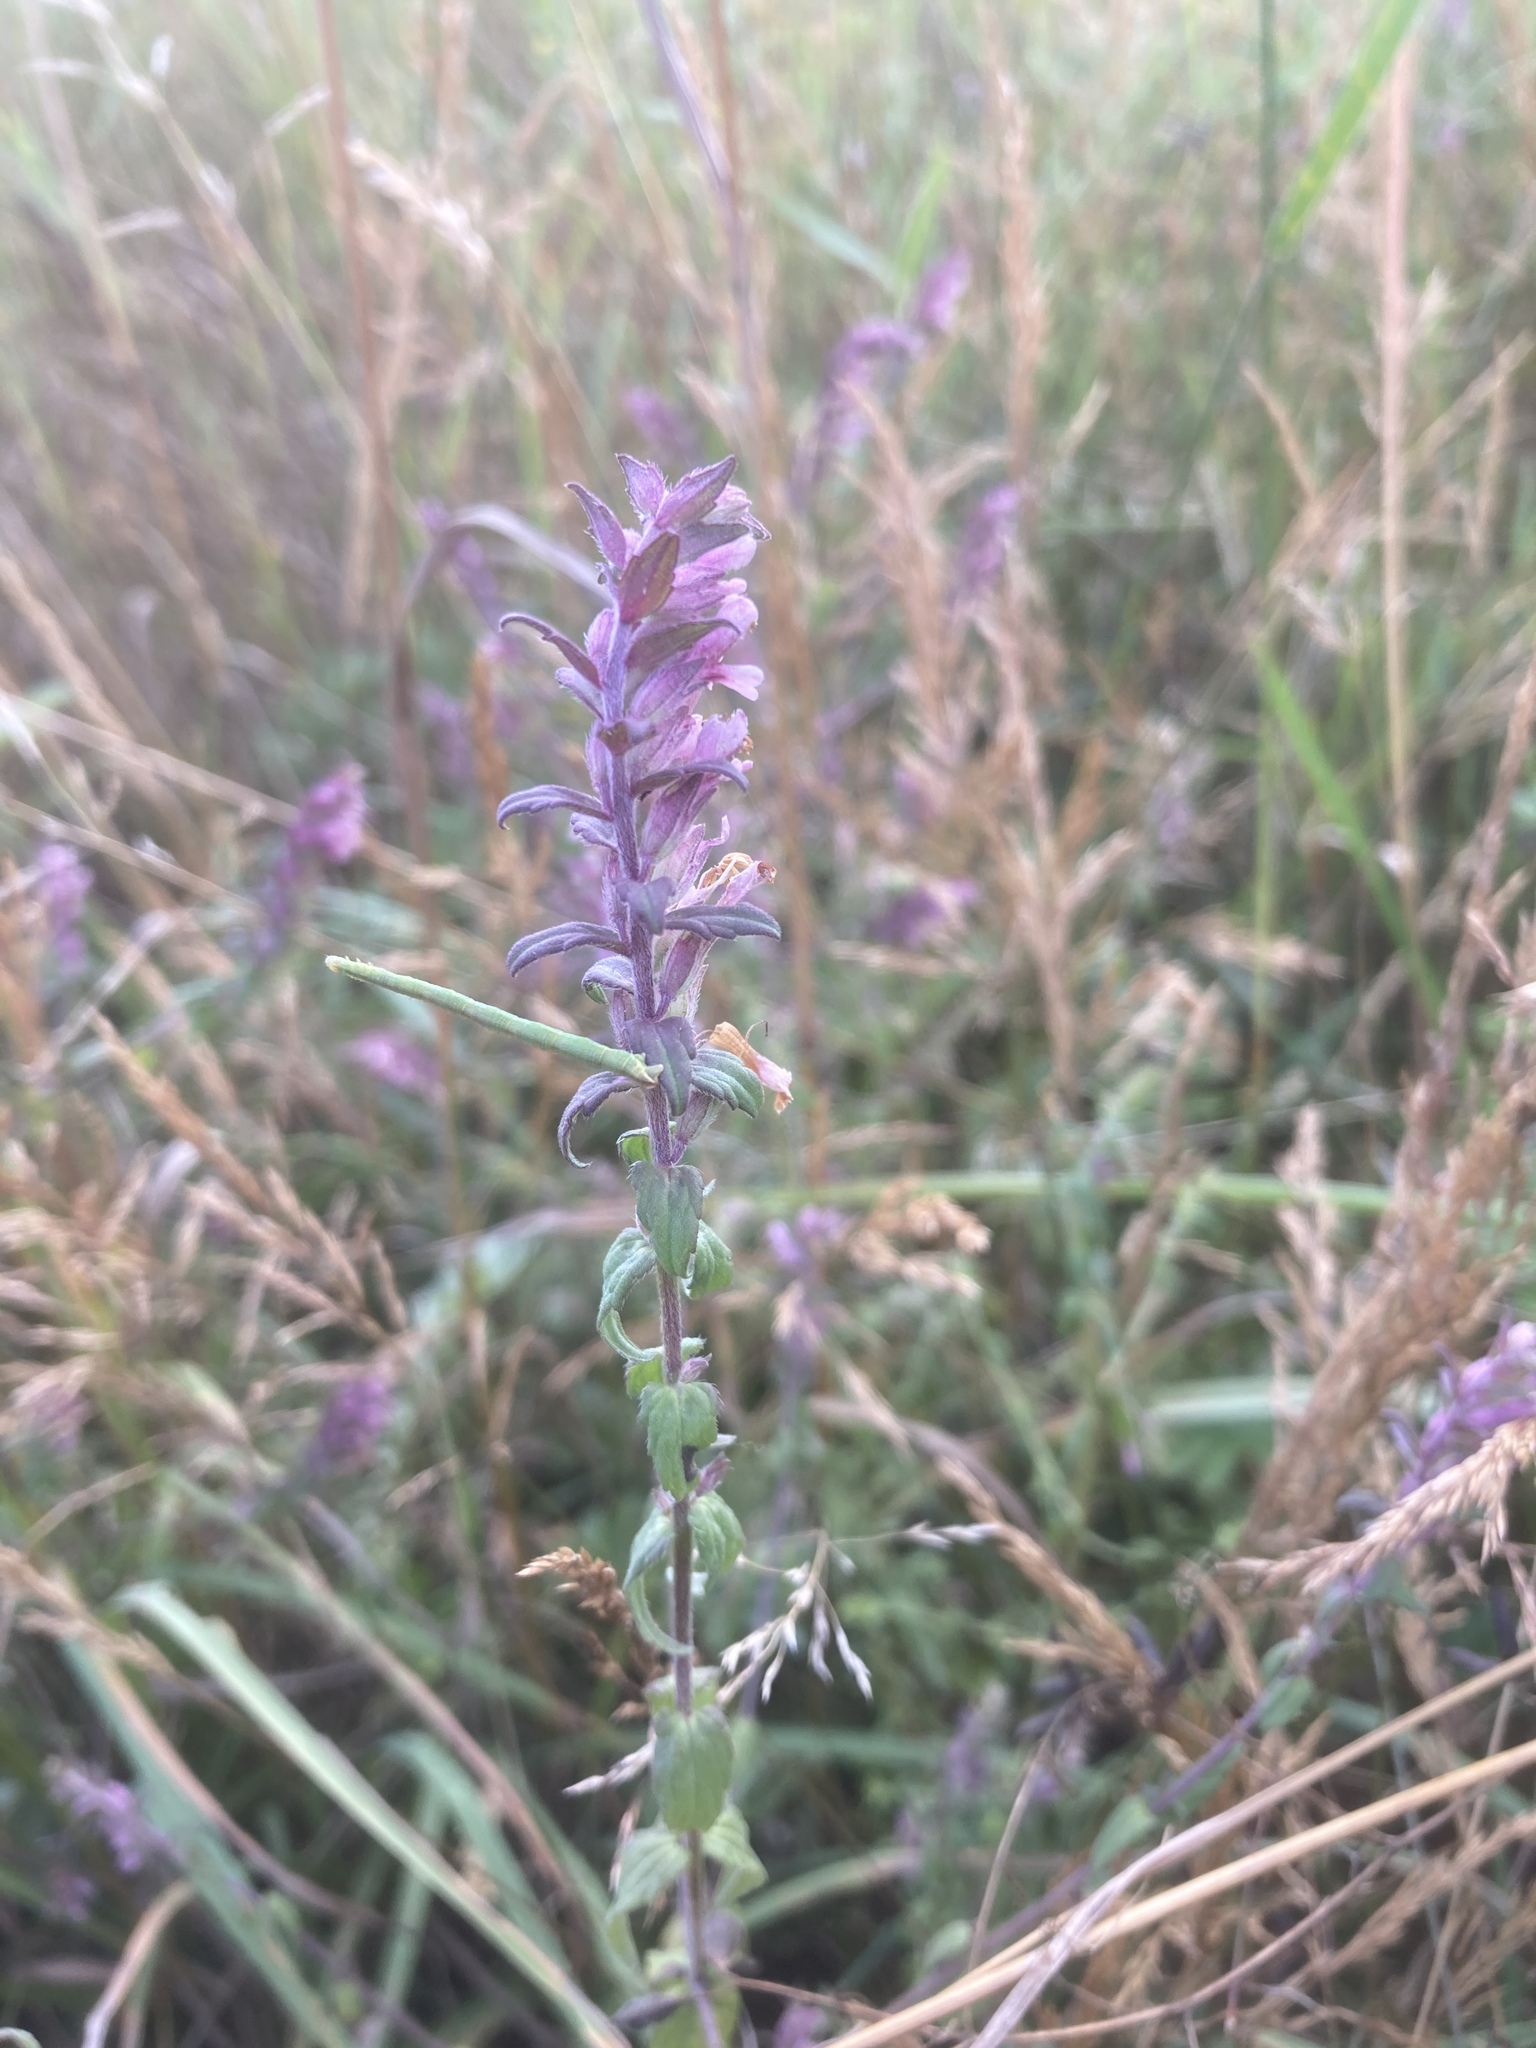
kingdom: Plantae
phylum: Tracheophyta
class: Magnoliopsida
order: Lamiales
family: Orobanchaceae
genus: Odontites
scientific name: Odontites vulgaris
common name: Broomrape
